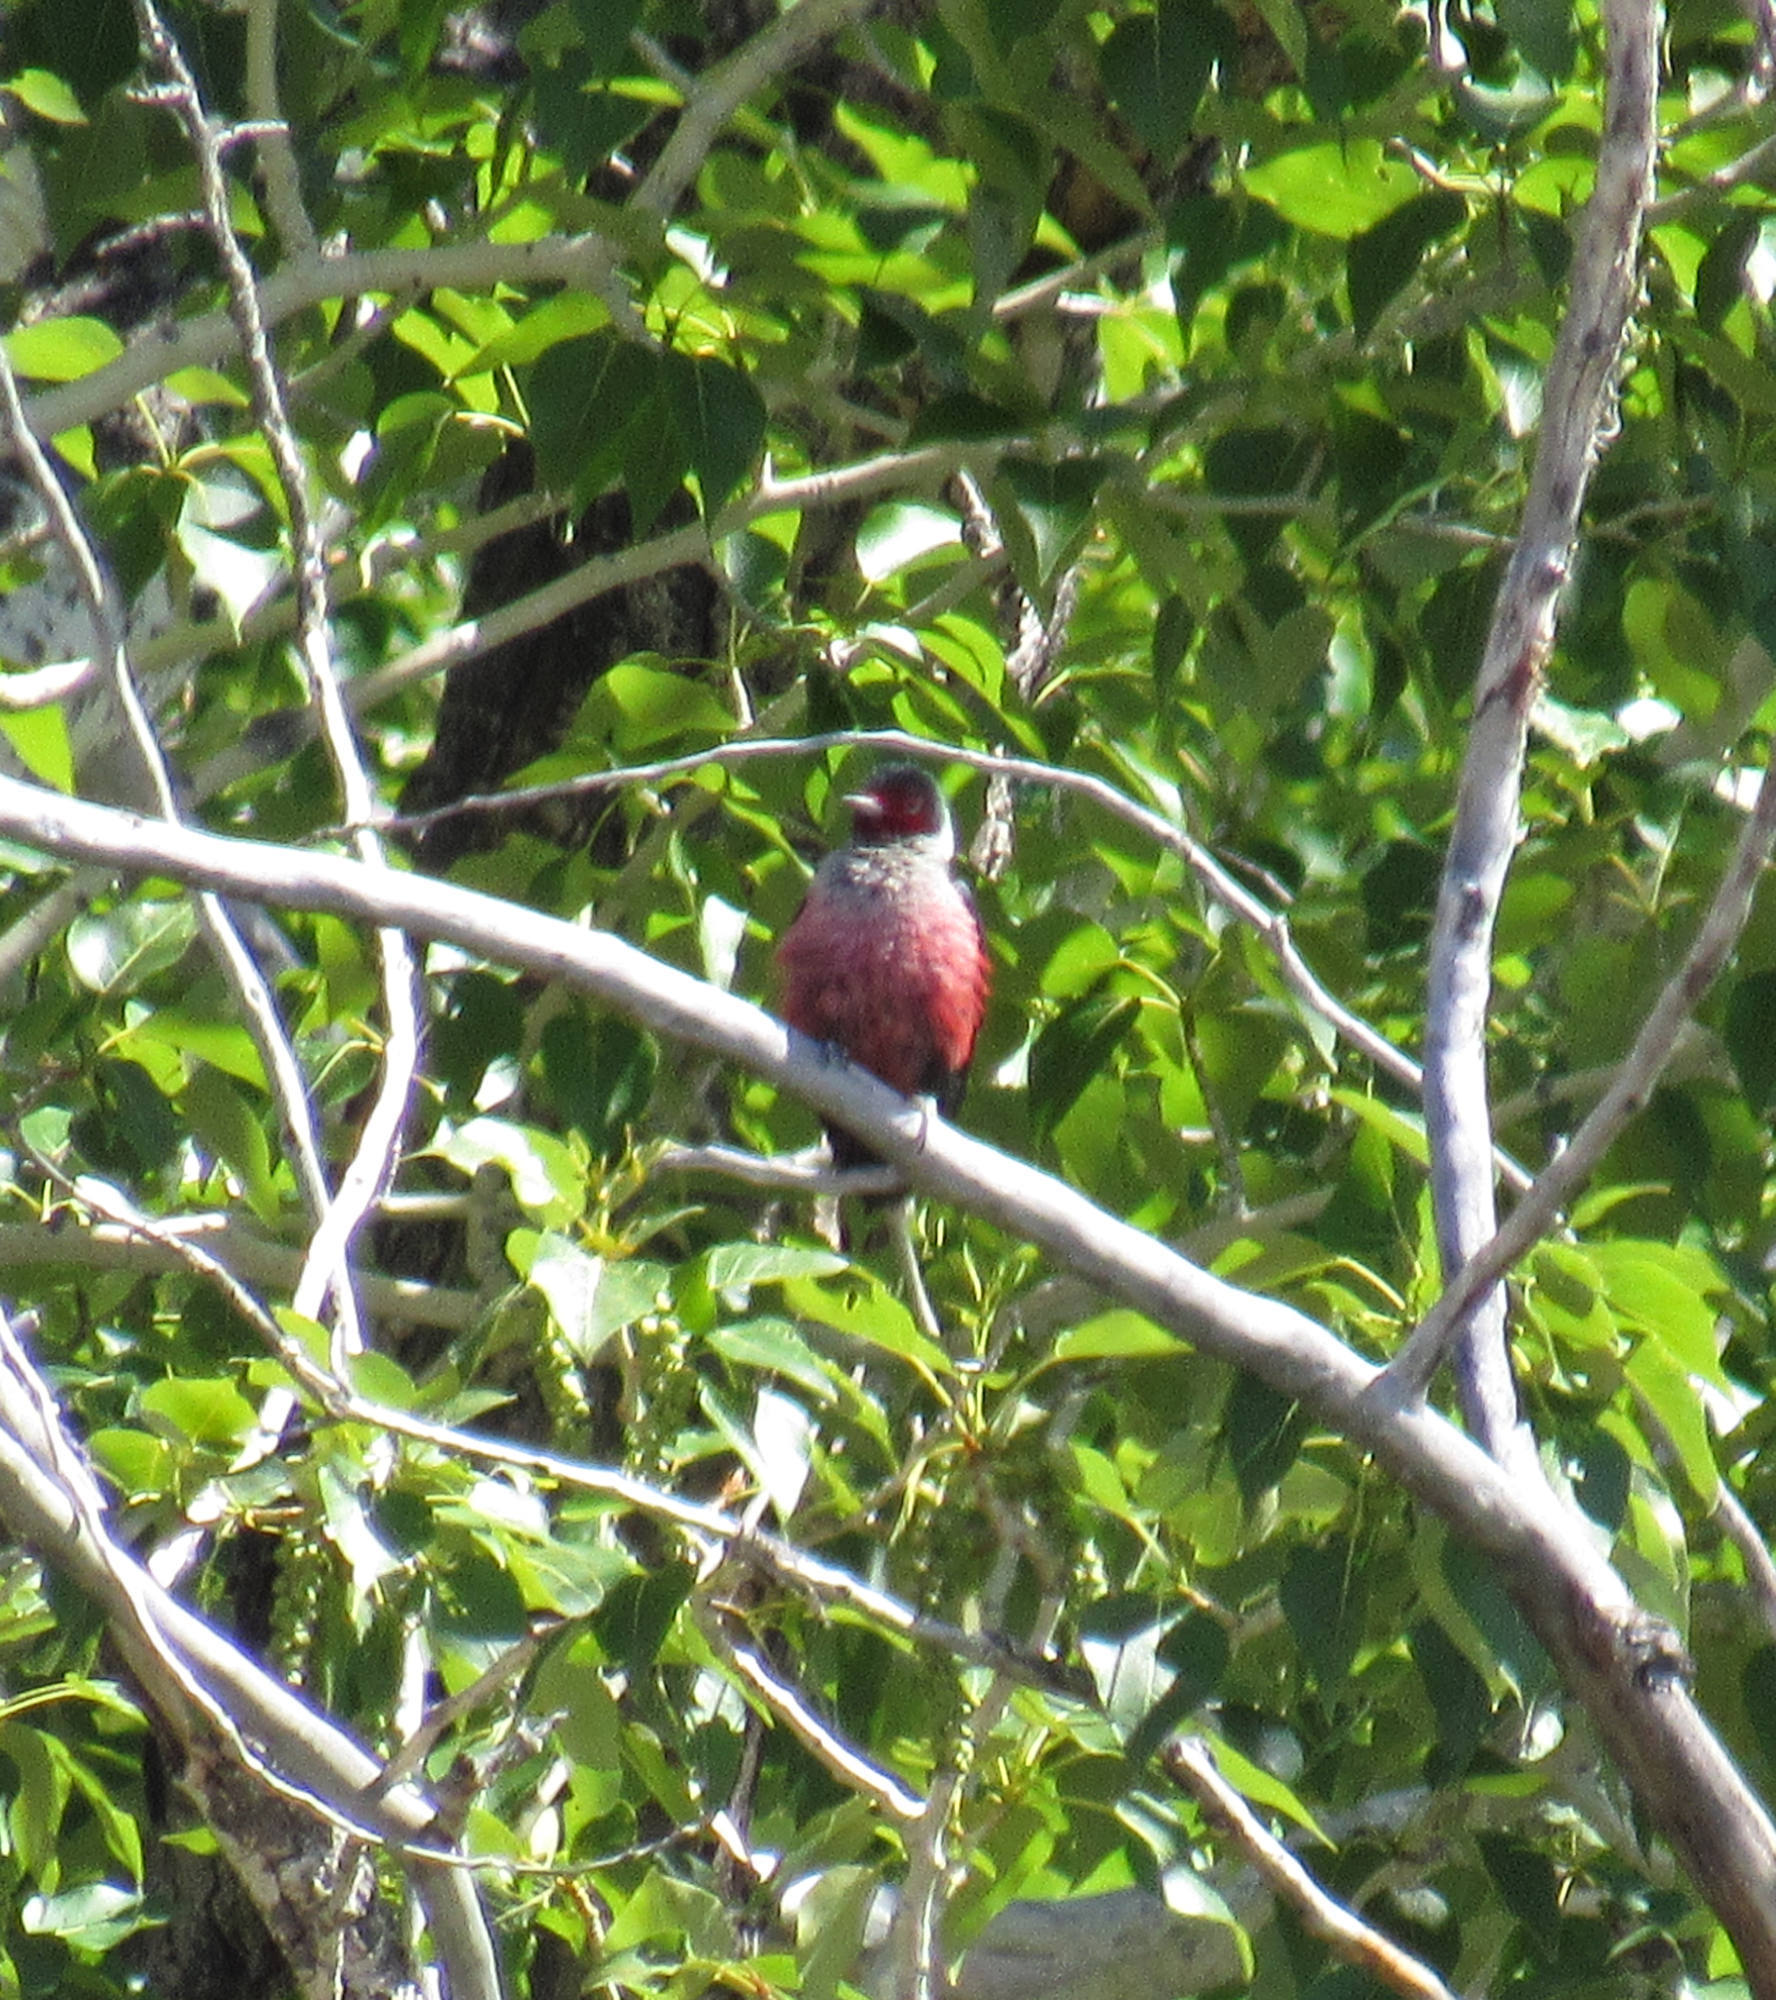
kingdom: Animalia
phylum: Chordata
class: Aves
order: Piciformes
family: Picidae
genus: Melanerpes
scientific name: Melanerpes lewis
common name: Lewis's woodpecker
